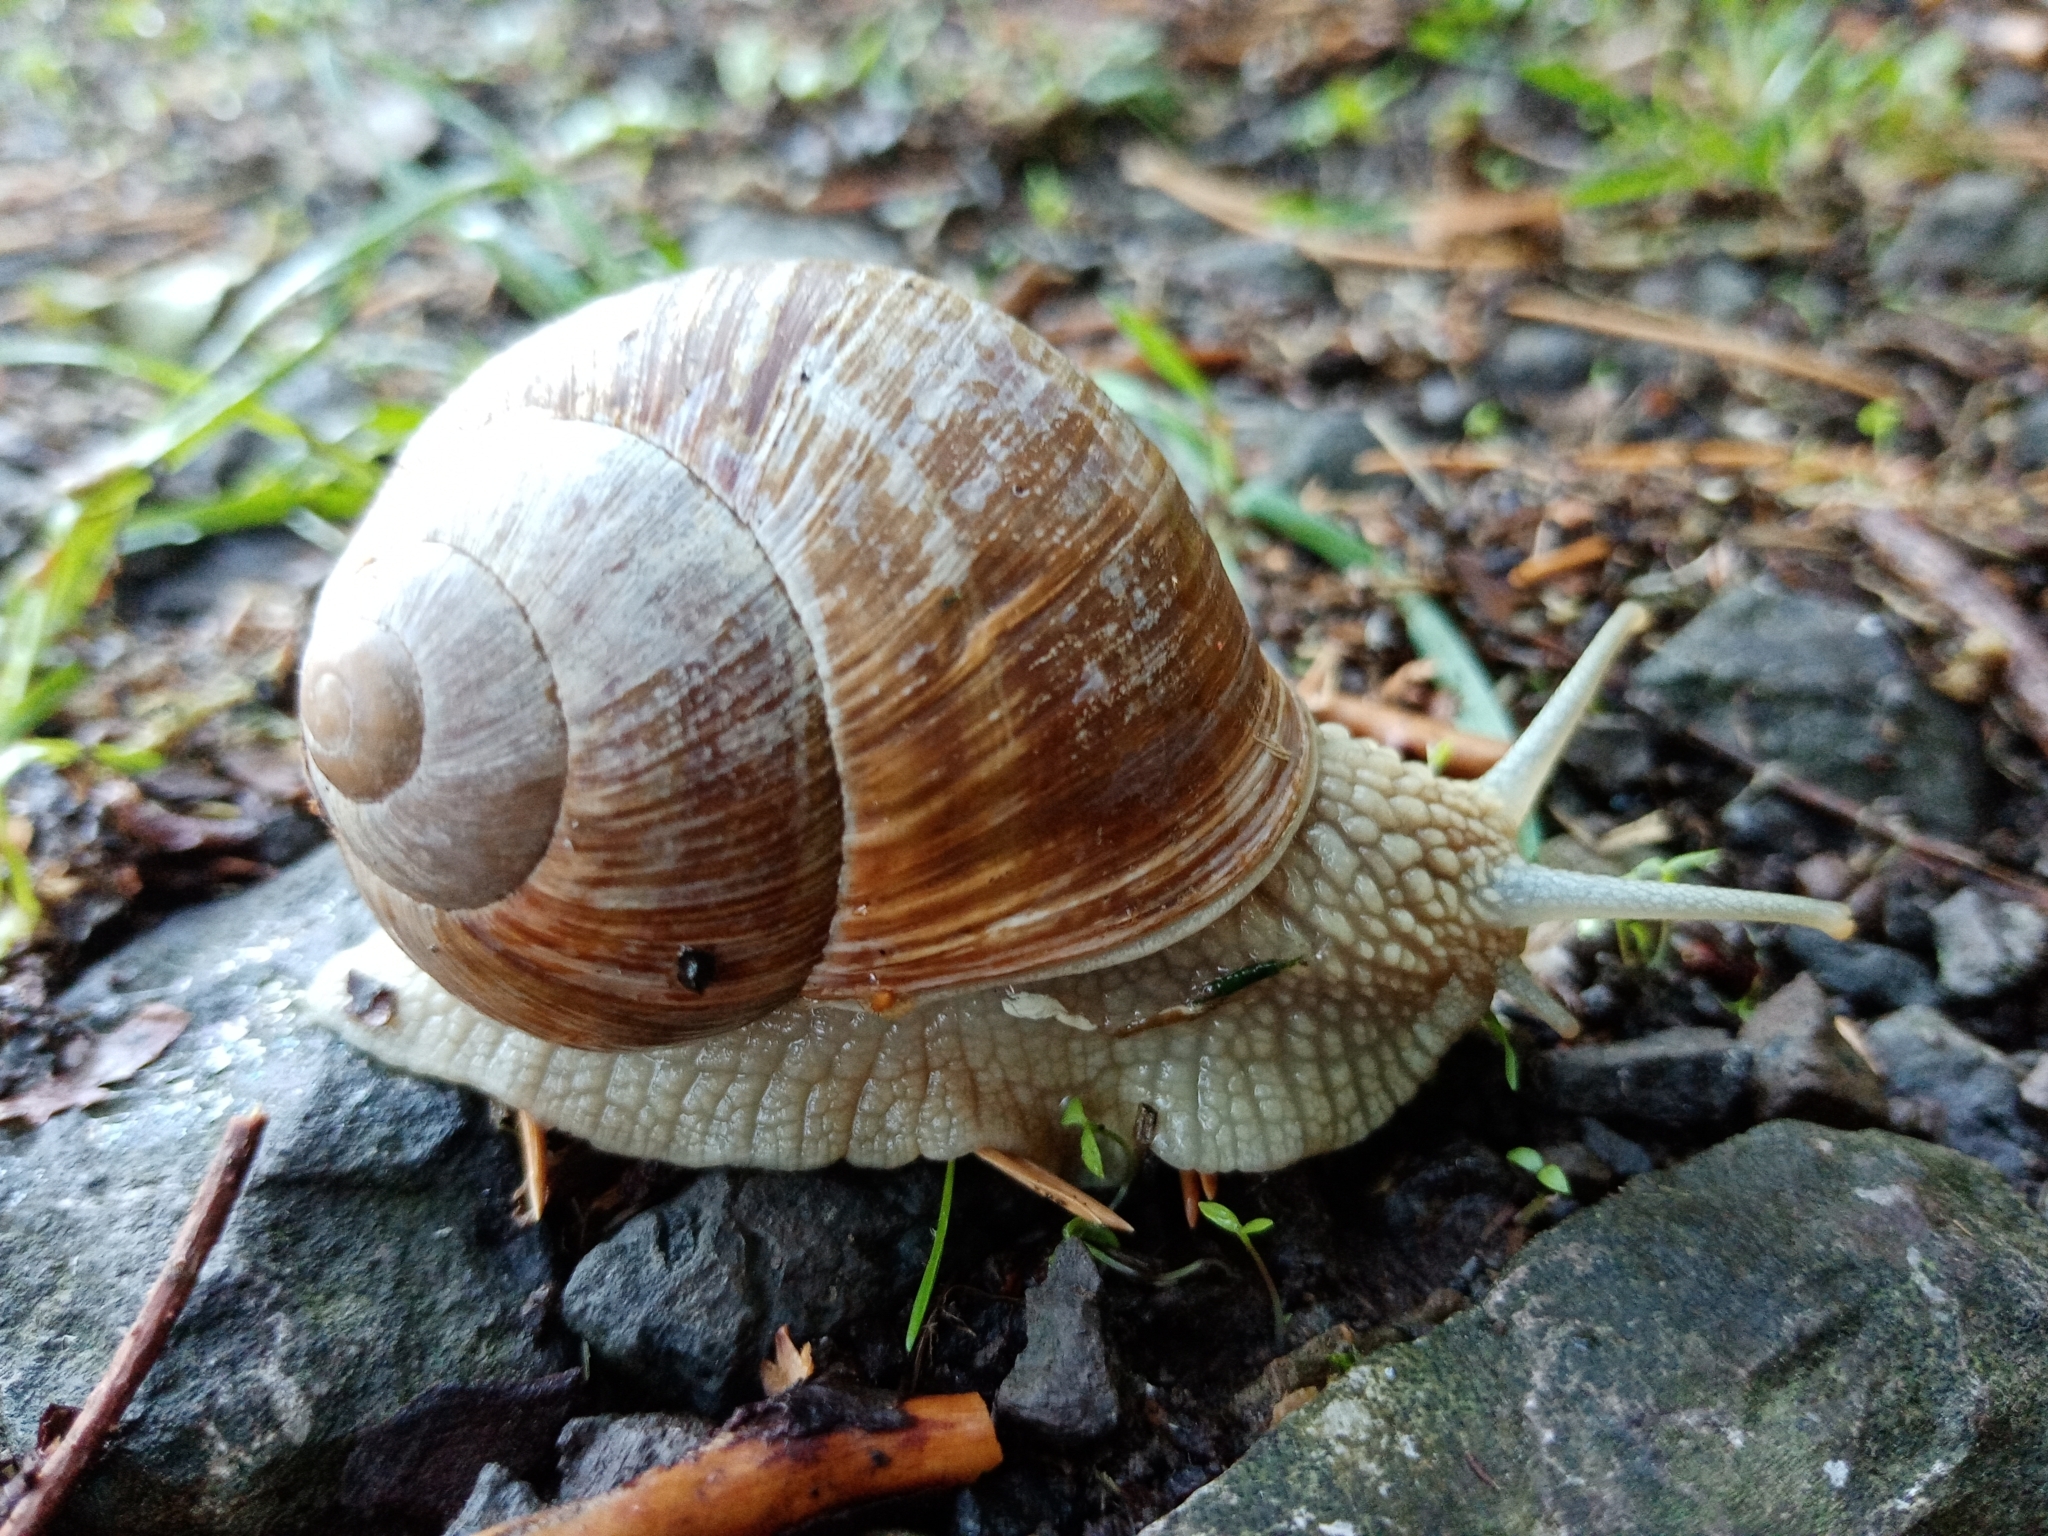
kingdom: Animalia
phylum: Mollusca
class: Gastropoda
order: Stylommatophora
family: Helicidae
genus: Helix
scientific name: Helix pomatia
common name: Roman snail
